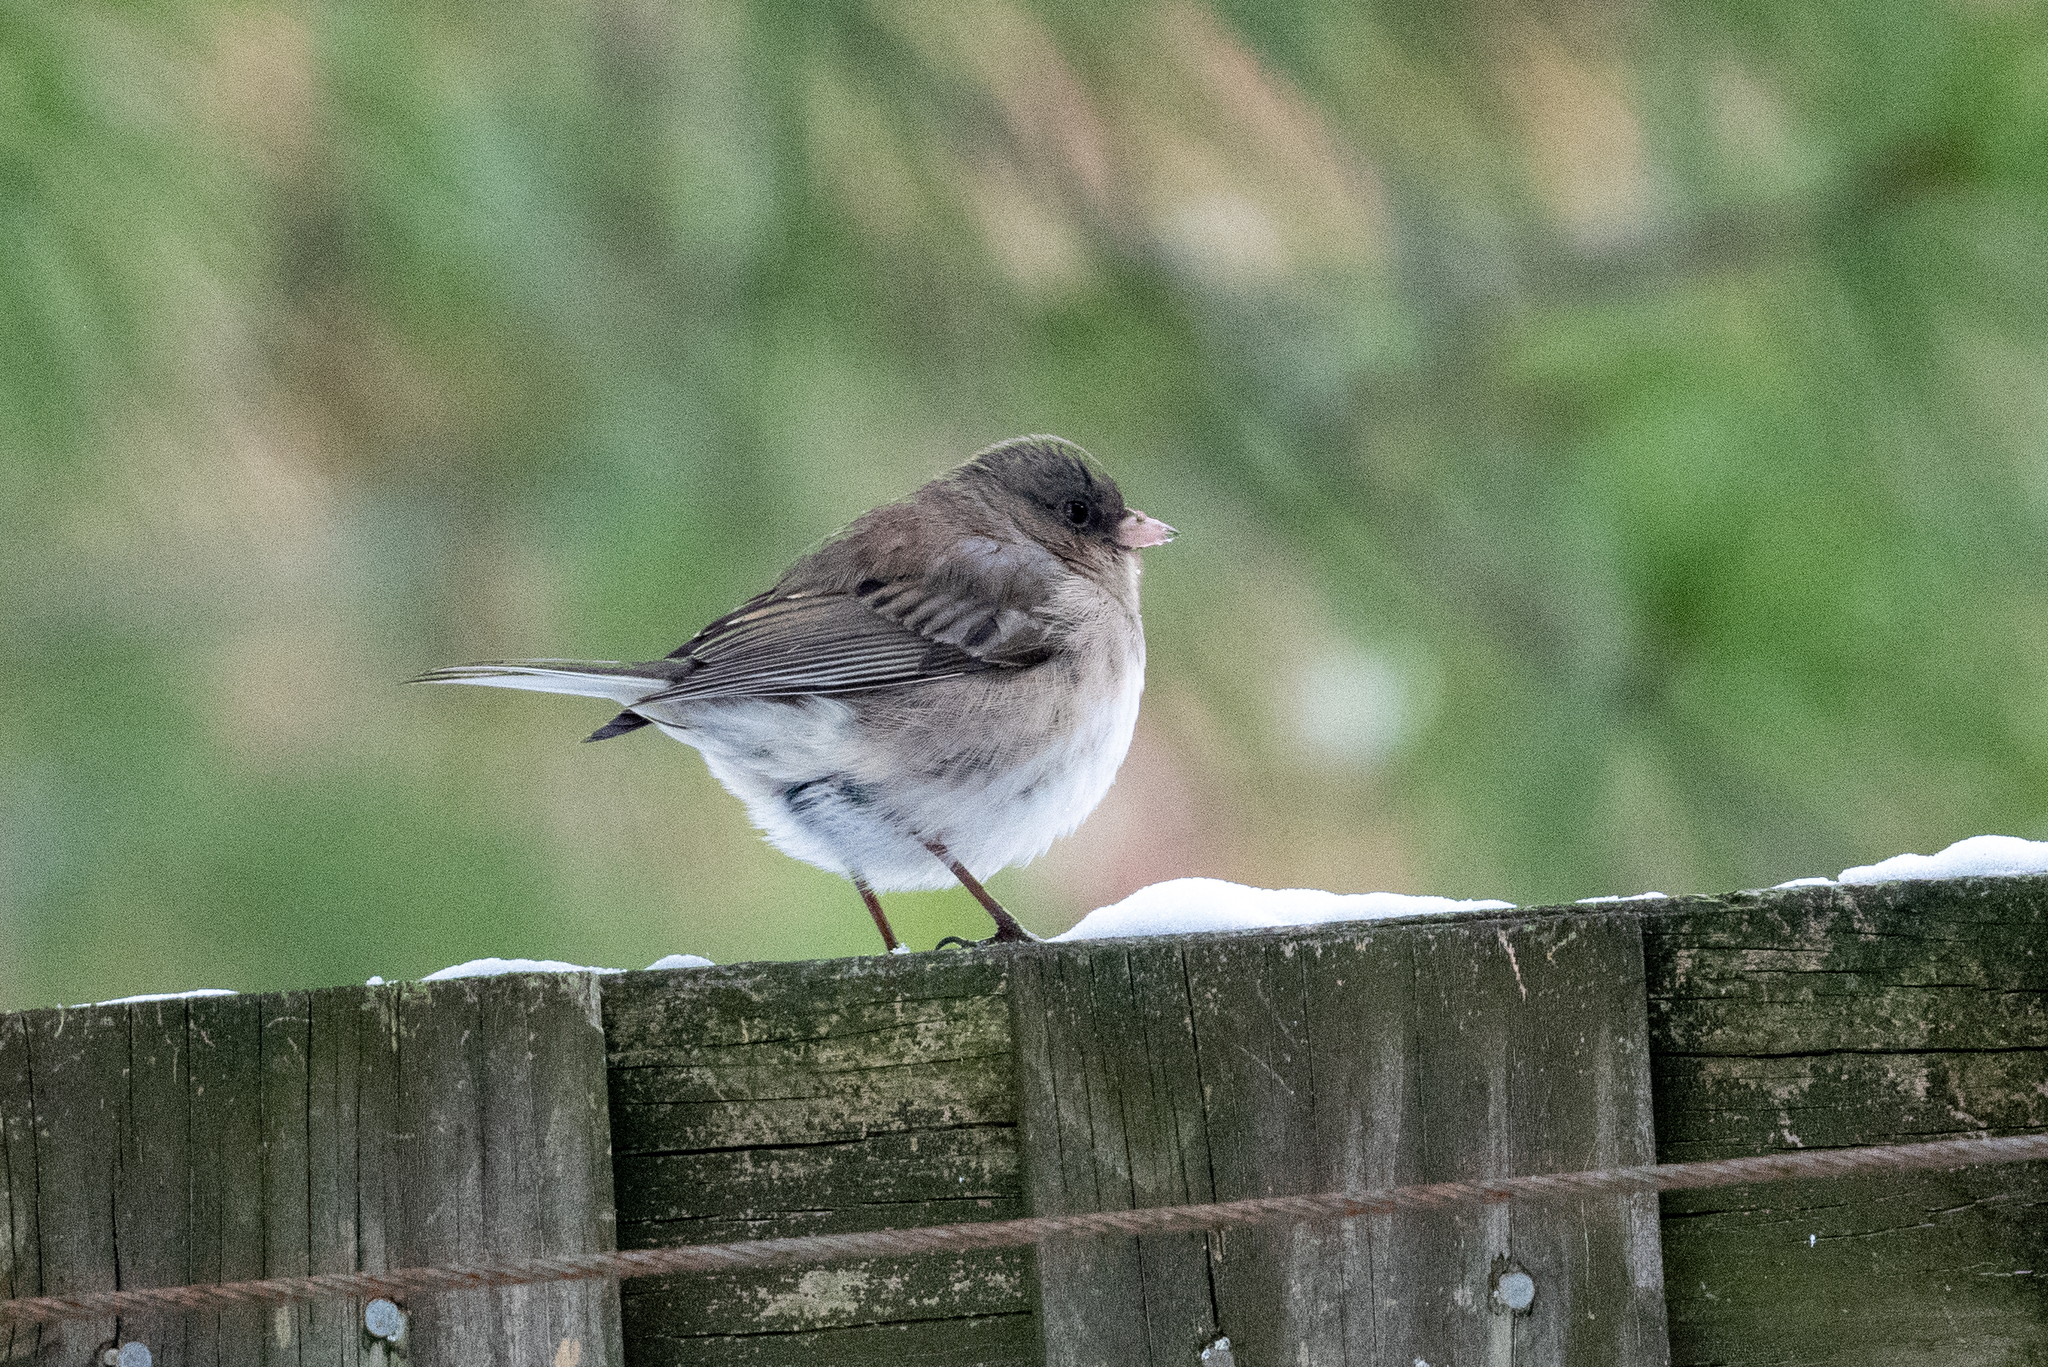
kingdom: Animalia
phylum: Chordata
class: Aves
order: Passeriformes
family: Passerellidae
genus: Junco
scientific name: Junco hyemalis
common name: Dark-eyed junco
